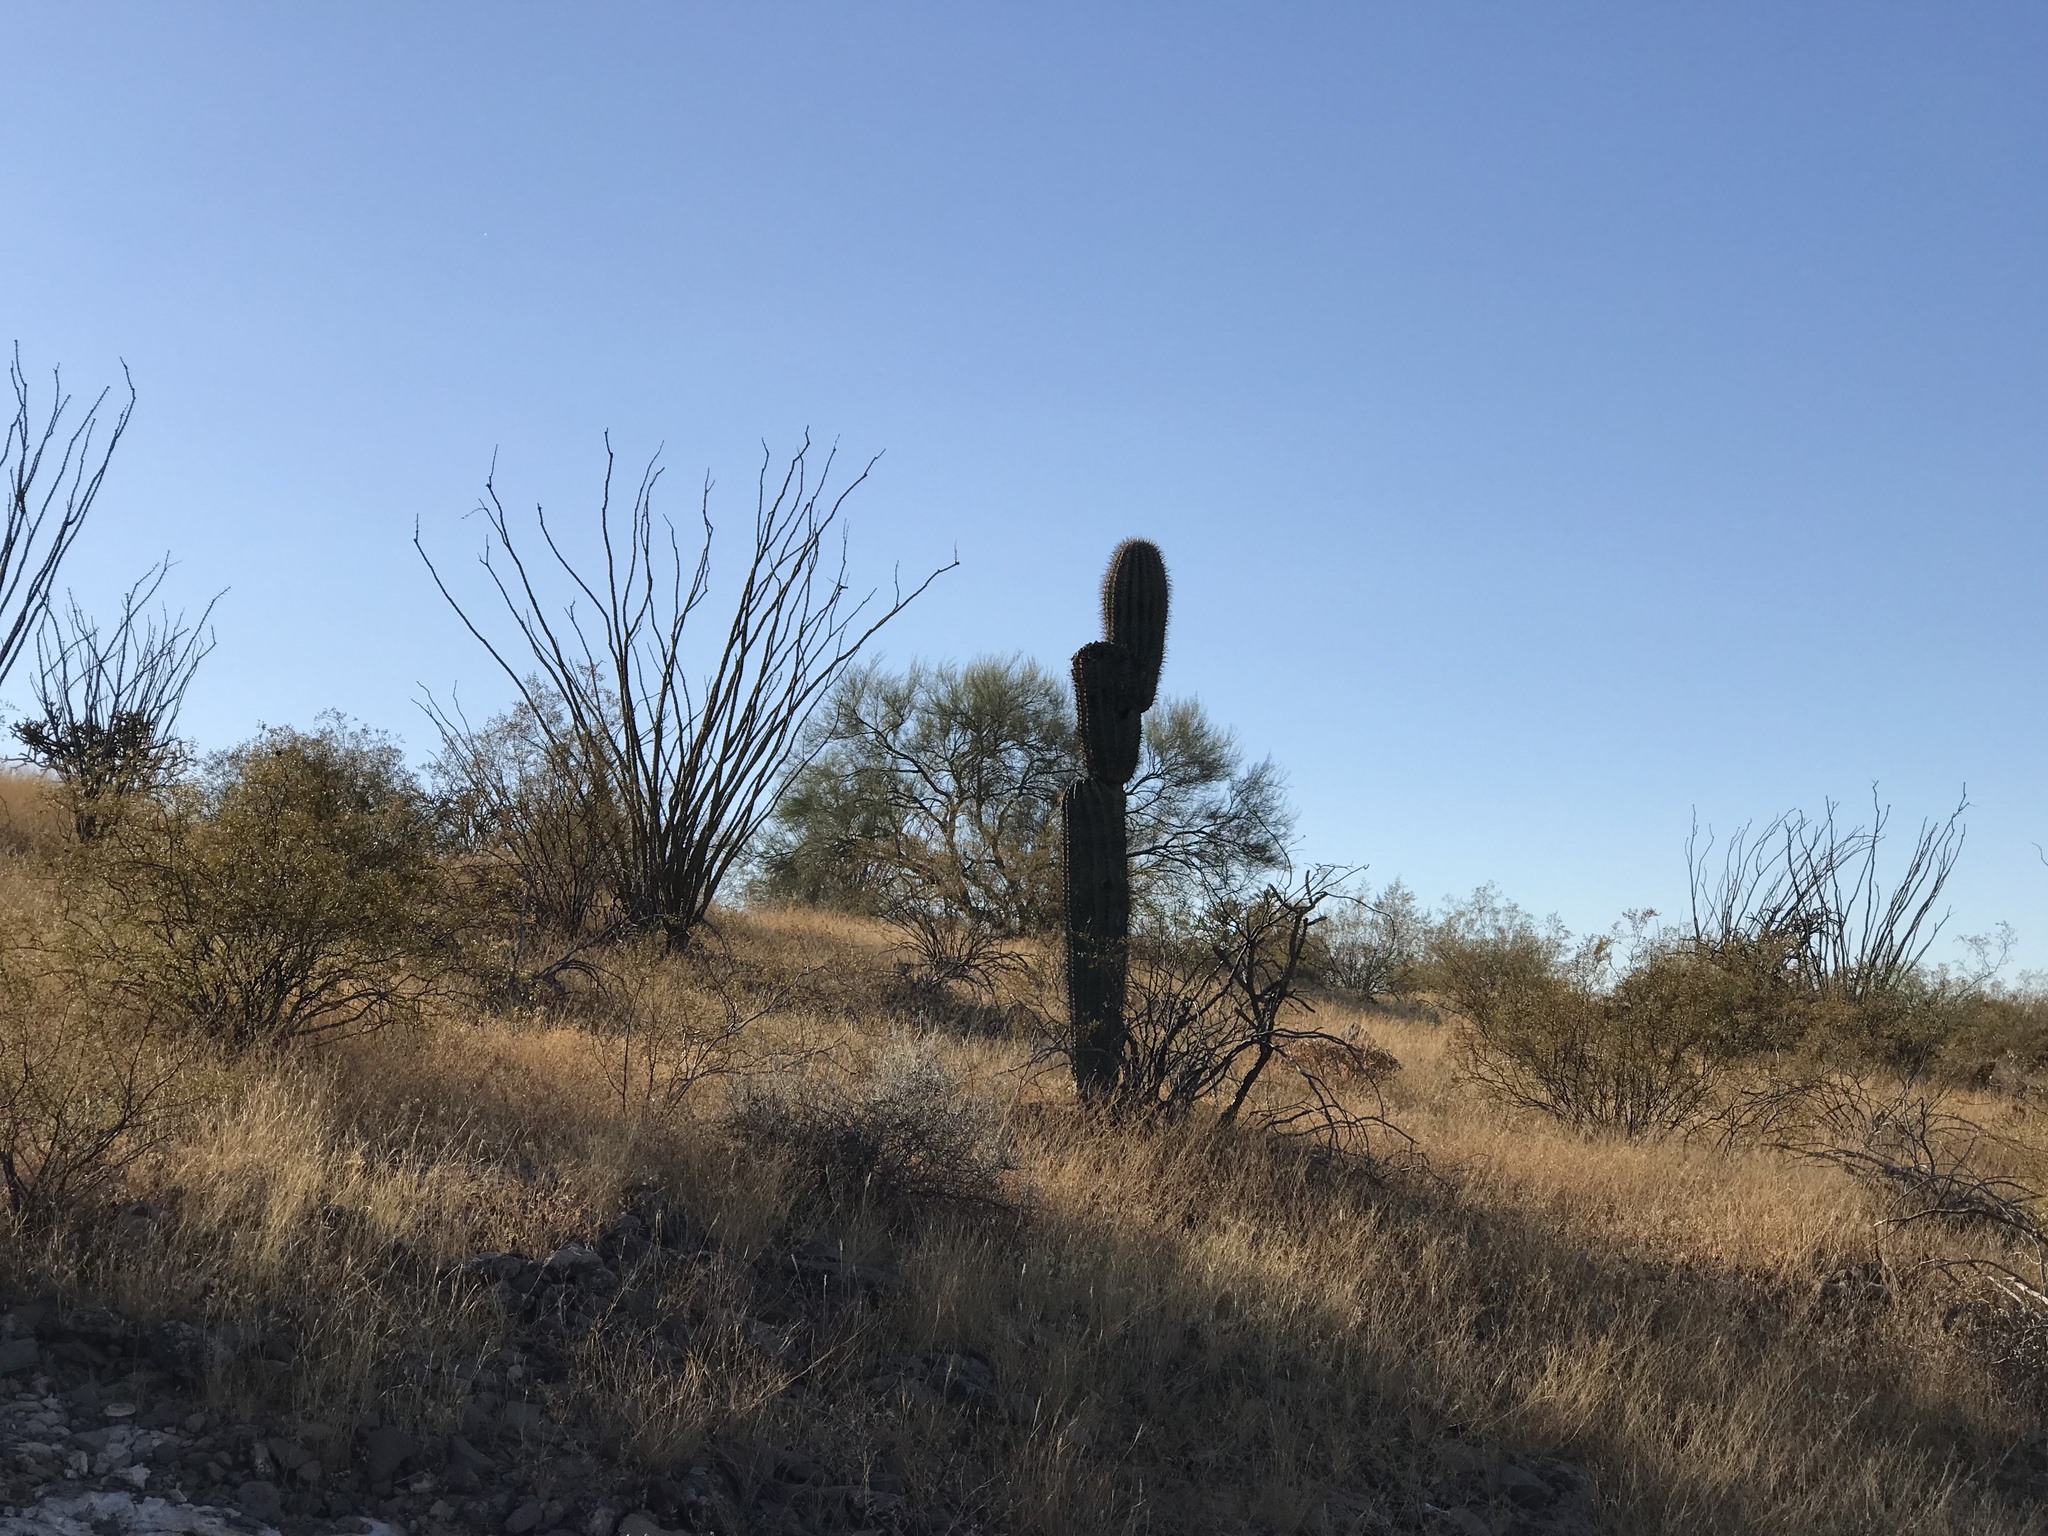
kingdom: Plantae
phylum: Tracheophyta
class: Magnoliopsida
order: Caryophyllales
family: Cactaceae
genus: Carnegiea
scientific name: Carnegiea gigantea
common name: Saguaro
